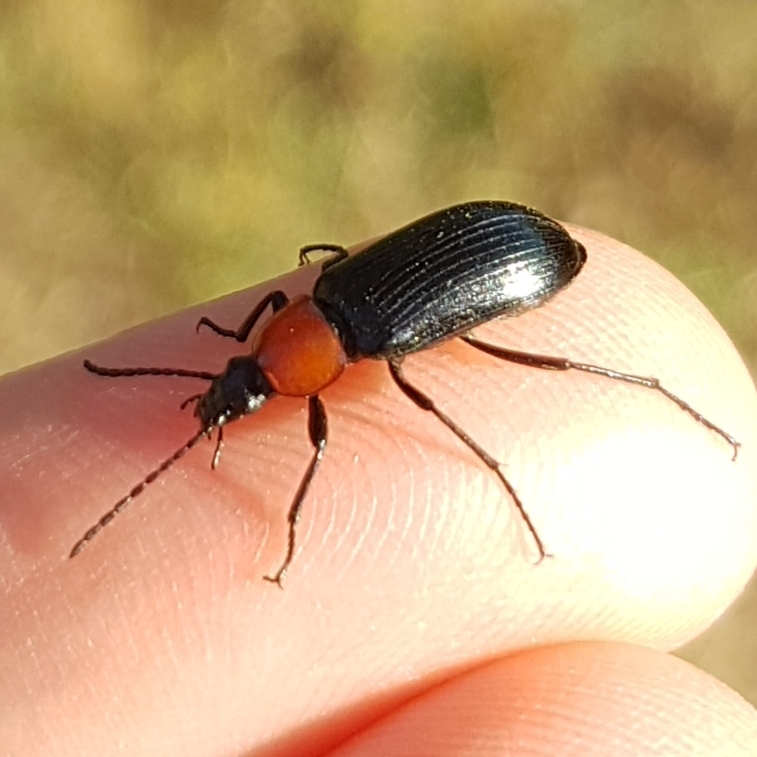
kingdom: Animalia
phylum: Arthropoda
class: Insecta
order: Coleoptera
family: Tenebrionidae
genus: Heliotaurus
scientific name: Heliotaurus ruficollis
